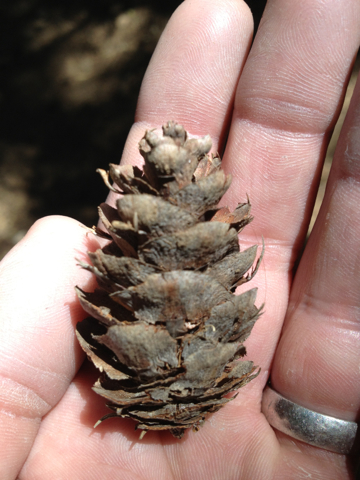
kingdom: Plantae
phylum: Tracheophyta
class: Pinopsida
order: Pinales
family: Pinaceae
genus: Pseudotsuga
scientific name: Pseudotsuga menziesii
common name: Douglas fir
